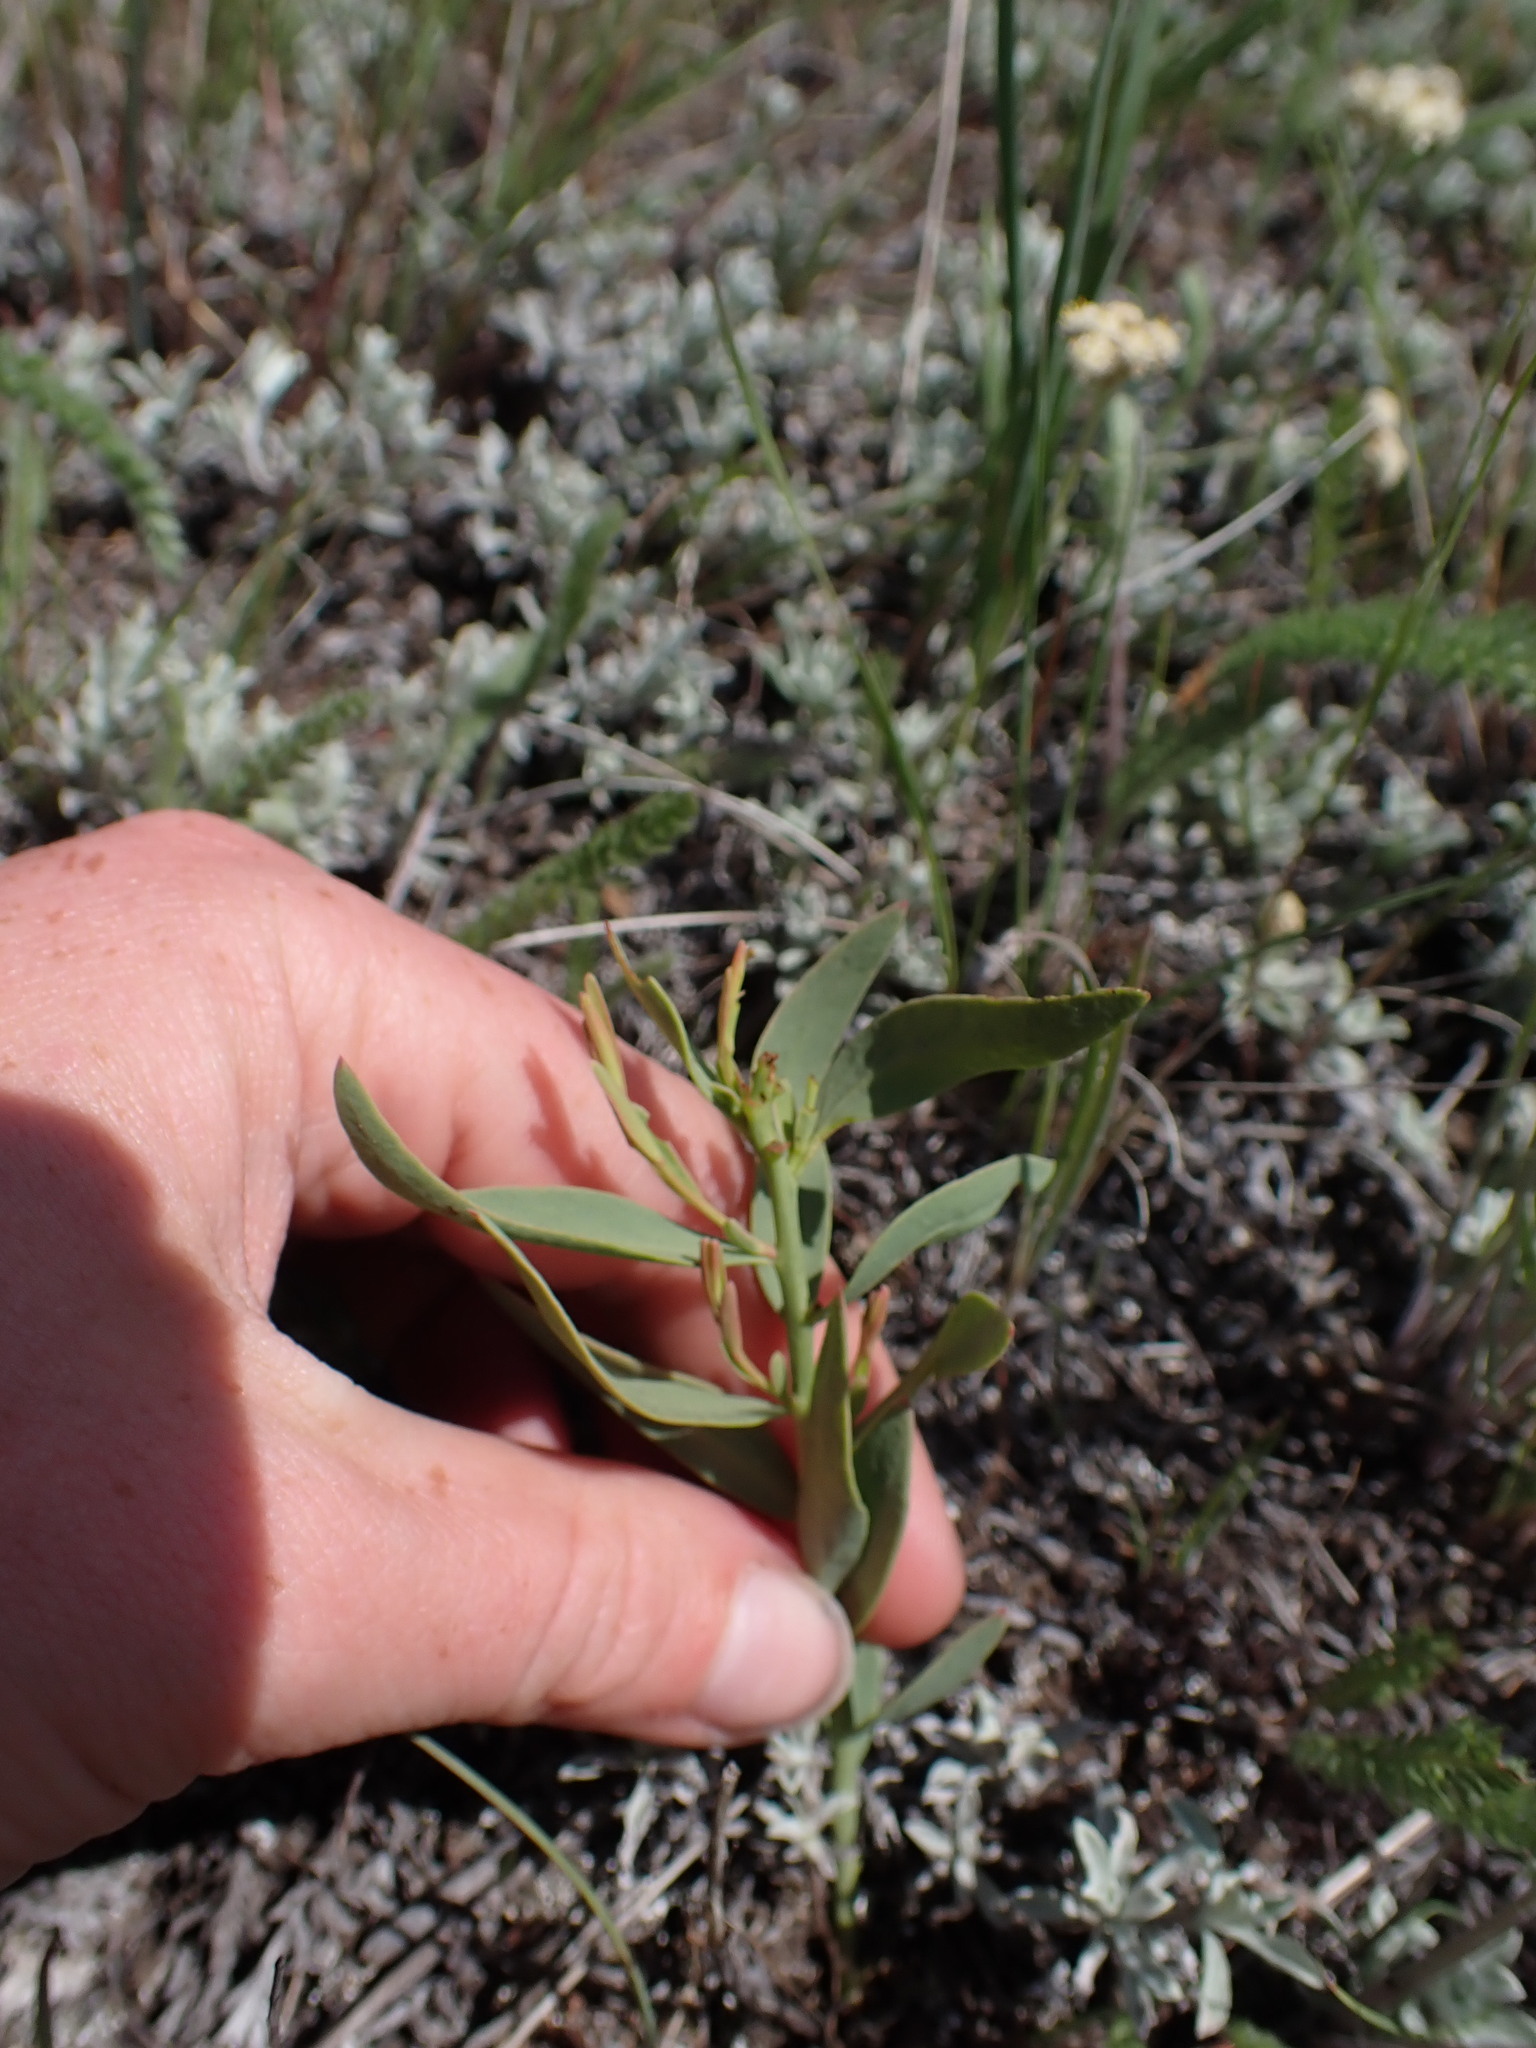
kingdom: Plantae
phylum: Tracheophyta
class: Magnoliopsida
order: Santalales
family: Comandraceae
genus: Comandra
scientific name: Comandra umbellata
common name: Bastard toadflax
